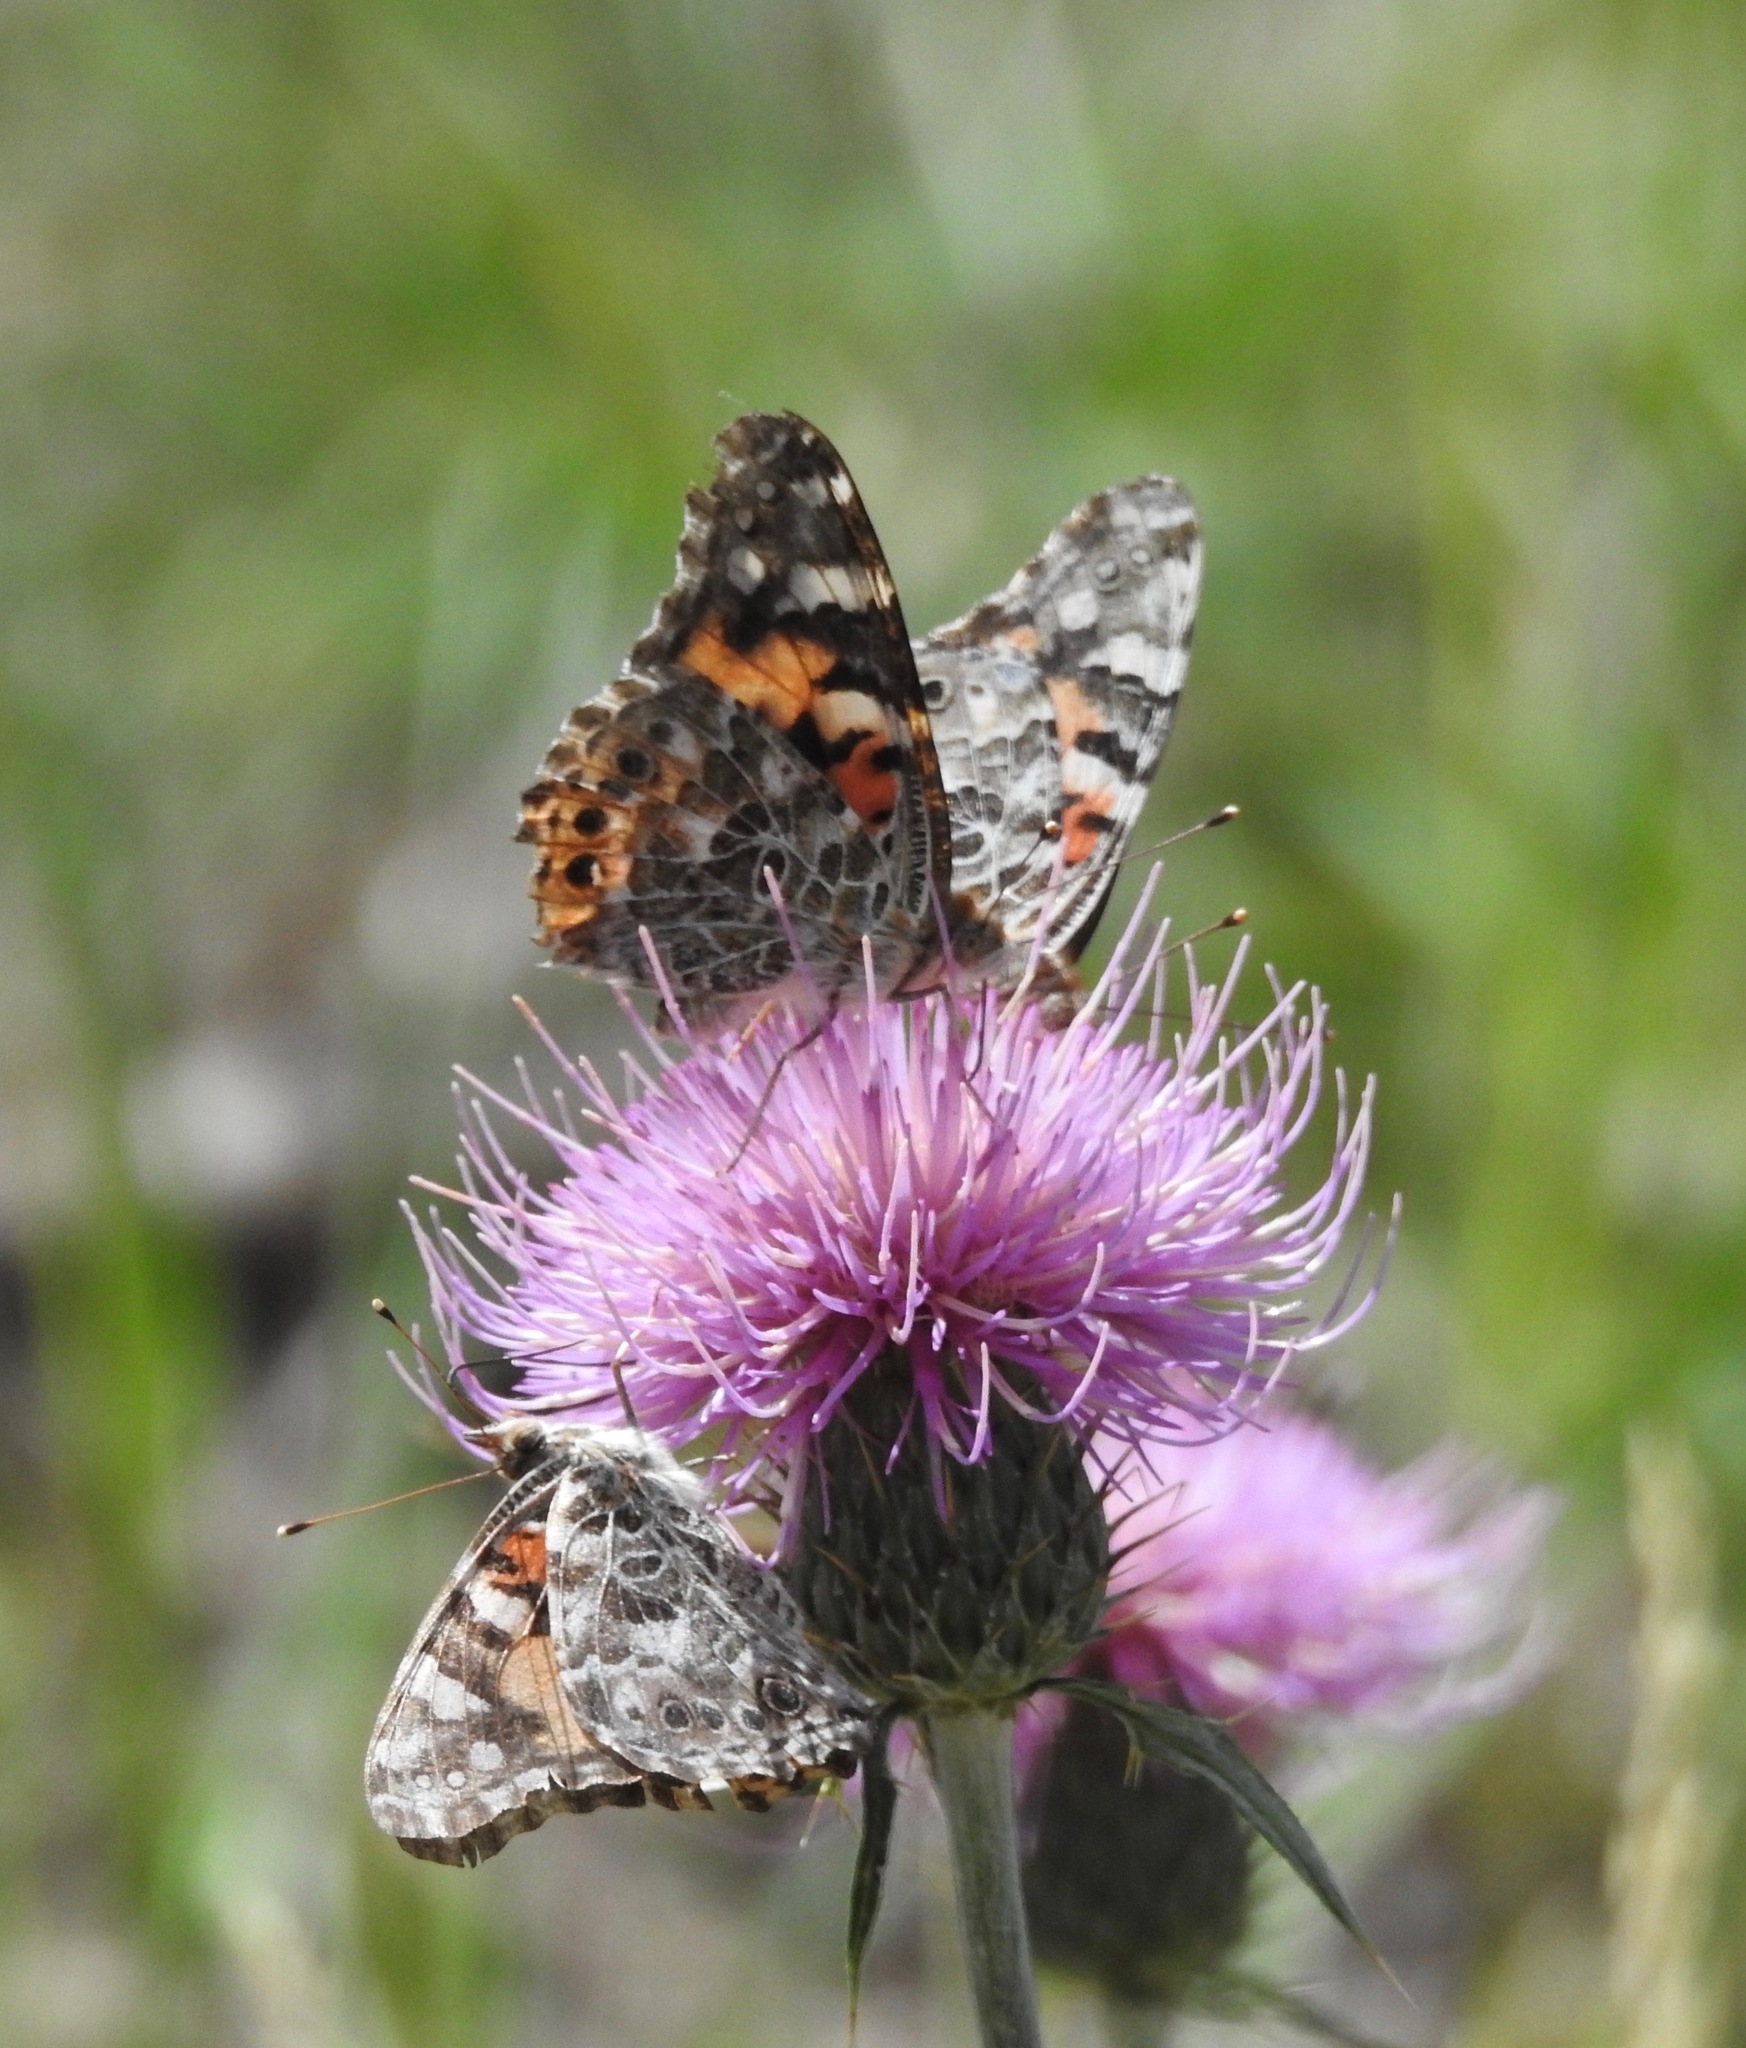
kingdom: Animalia
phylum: Arthropoda
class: Insecta
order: Lepidoptera
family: Nymphalidae
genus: Vanessa
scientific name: Vanessa cardui
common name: Painted lady
